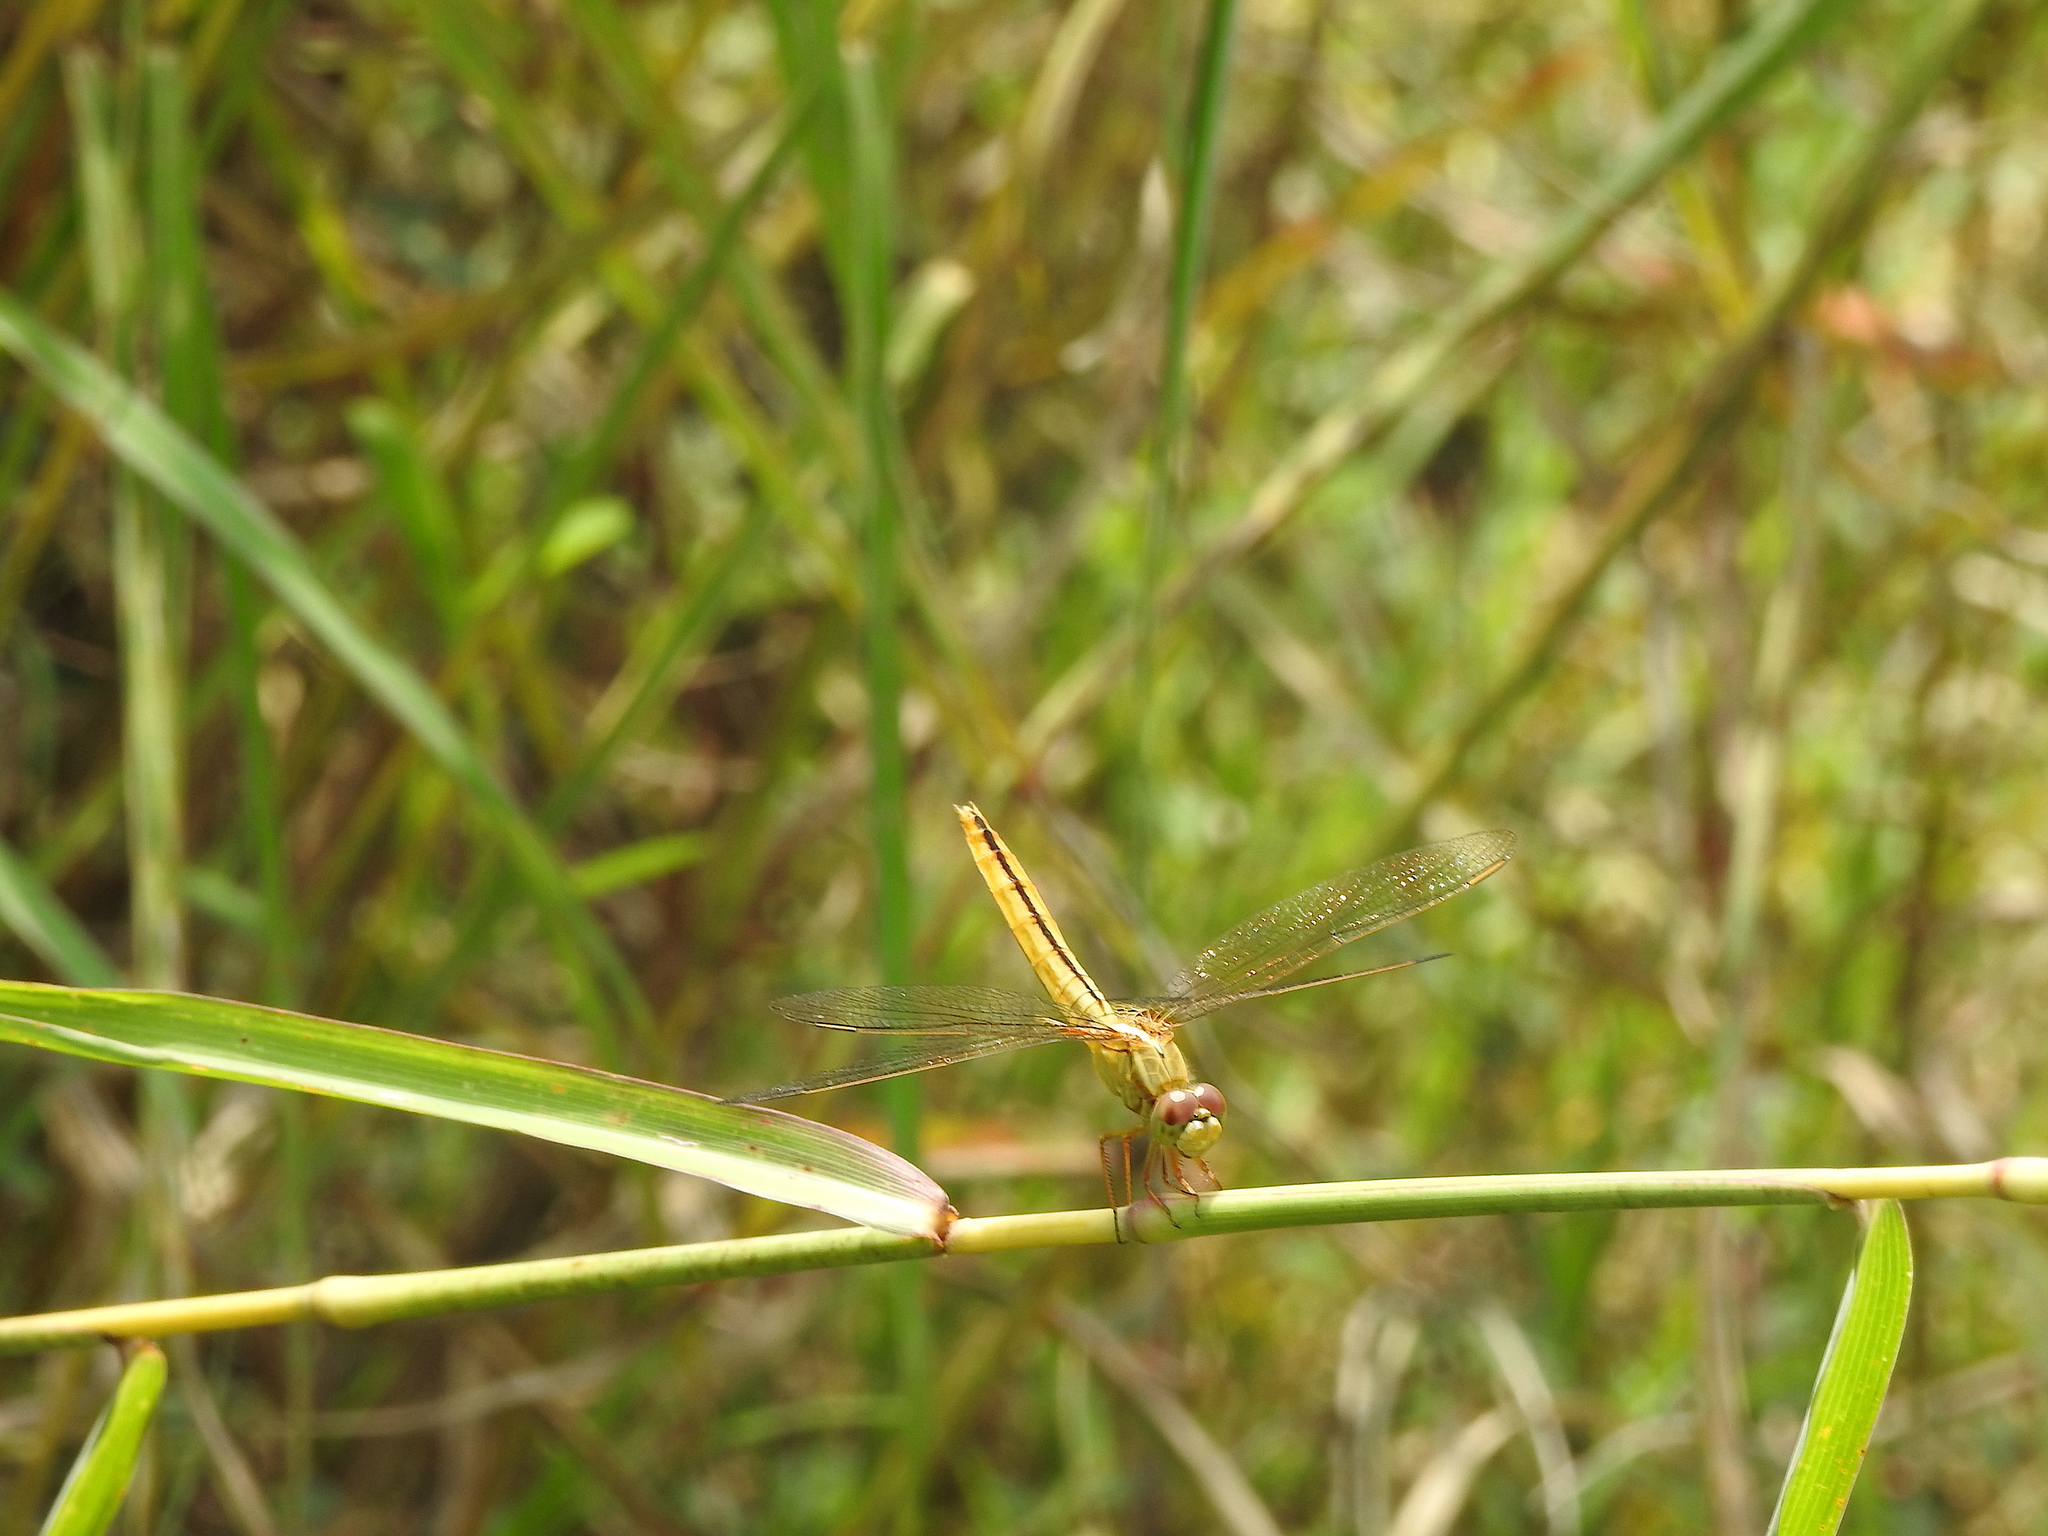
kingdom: Animalia
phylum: Arthropoda
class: Insecta
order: Odonata
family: Libellulidae
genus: Crocothemis
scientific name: Crocothemis servilia
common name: Scarlet skimmer
